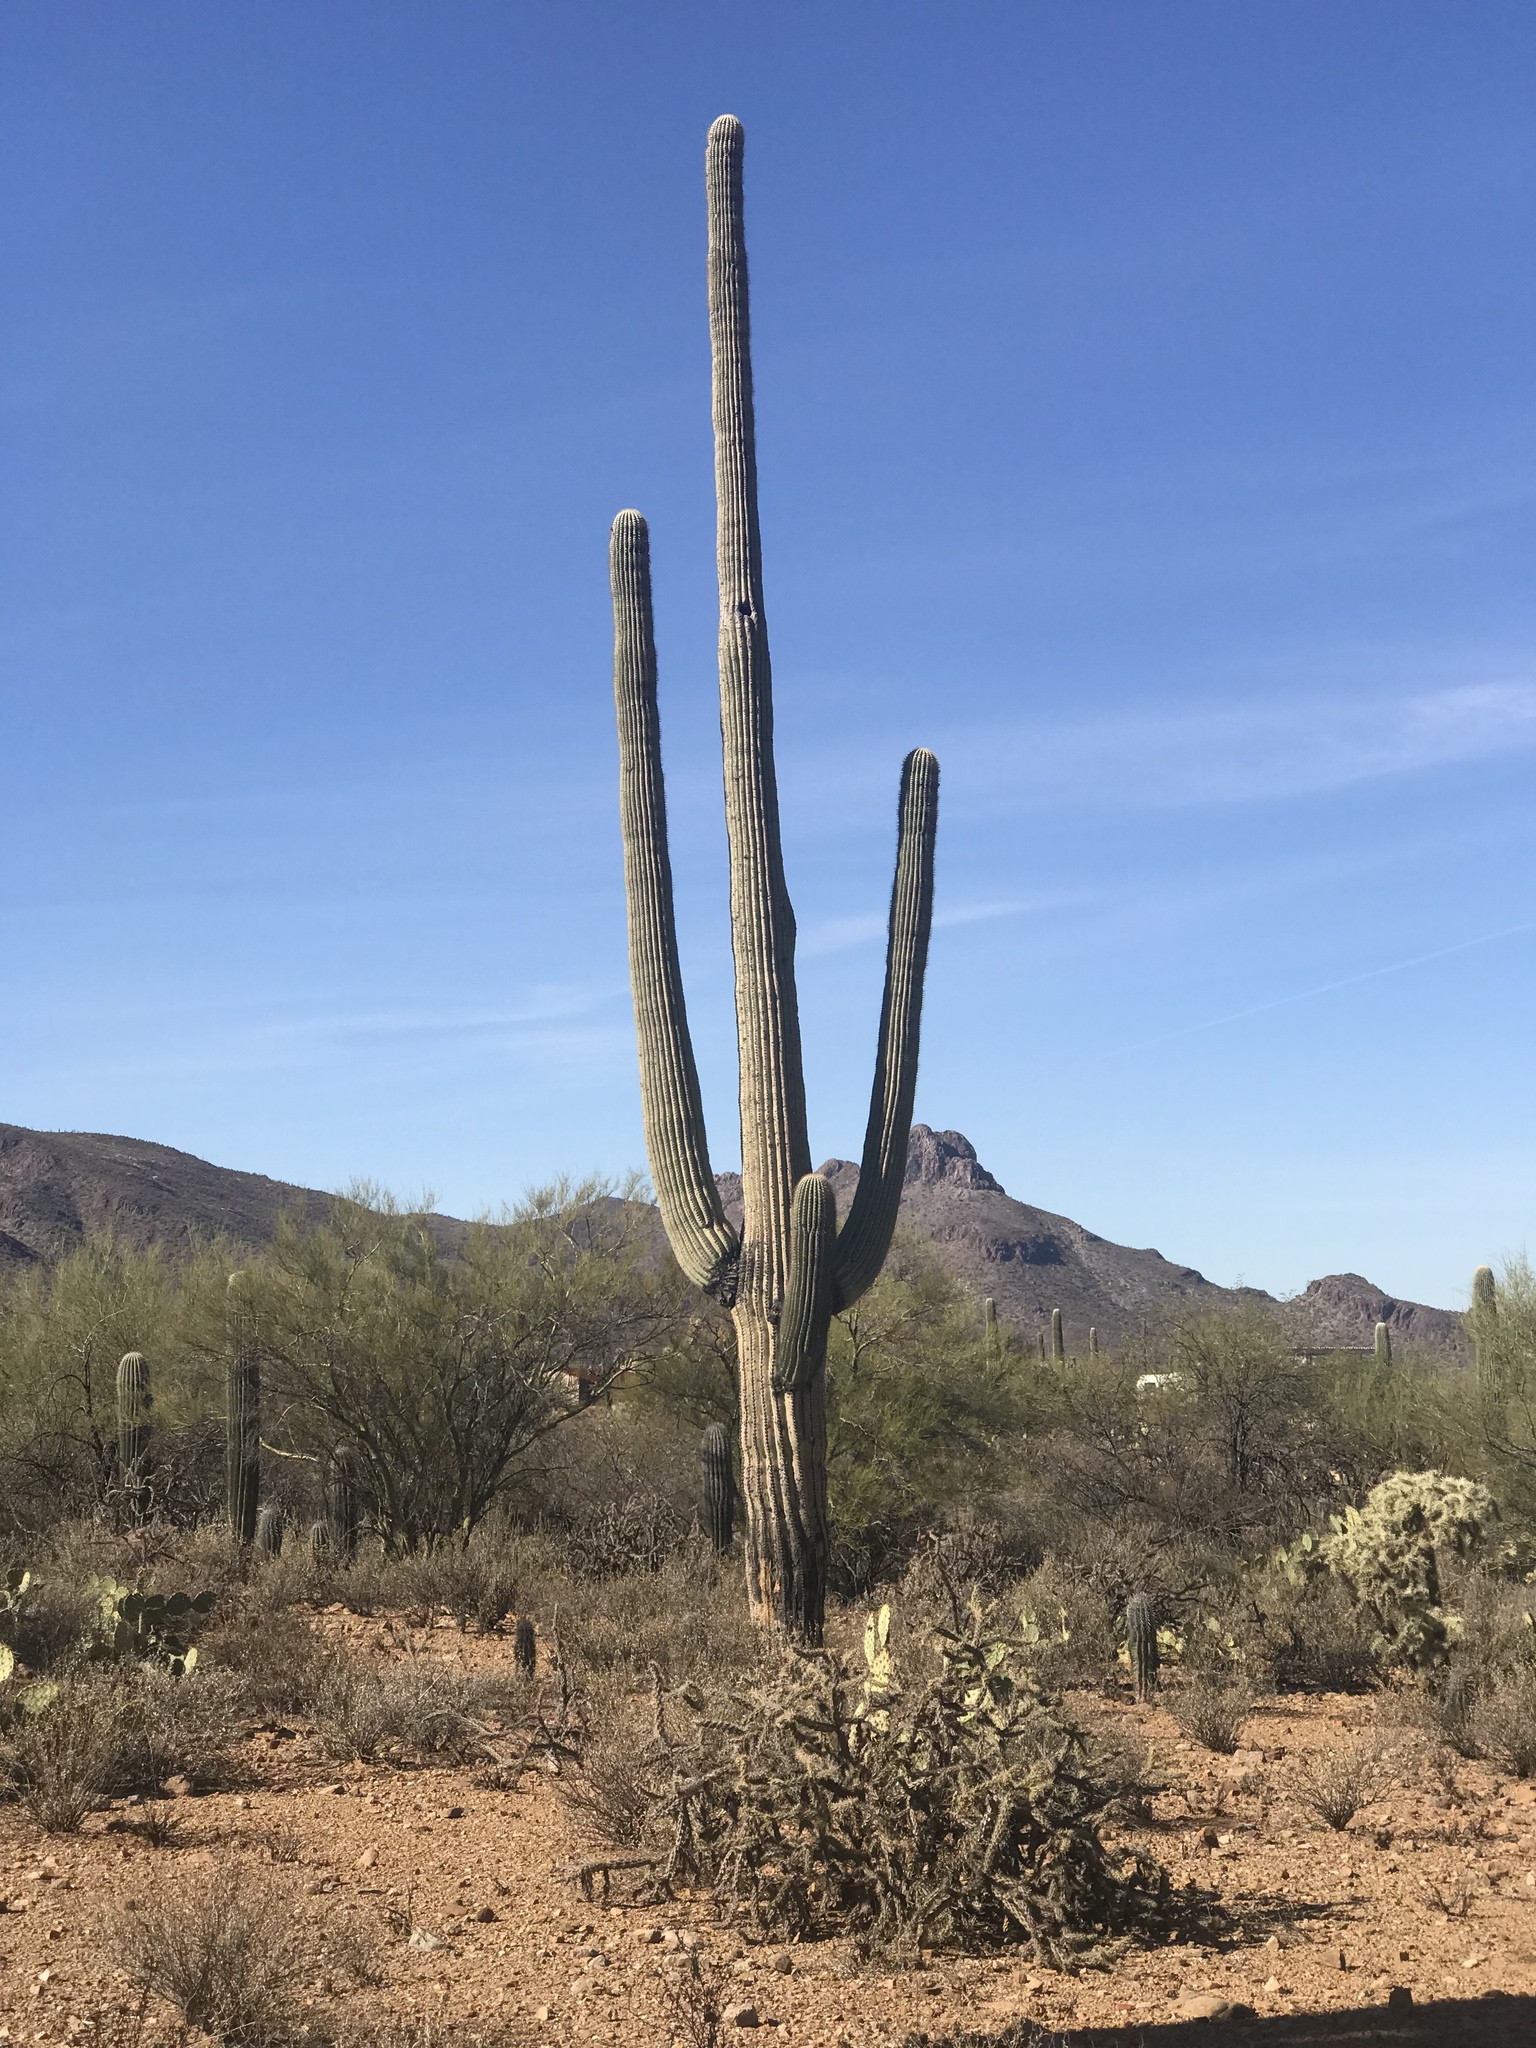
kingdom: Plantae
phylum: Tracheophyta
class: Magnoliopsida
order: Caryophyllales
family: Cactaceae
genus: Carnegiea
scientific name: Carnegiea gigantea
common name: Saguaro
